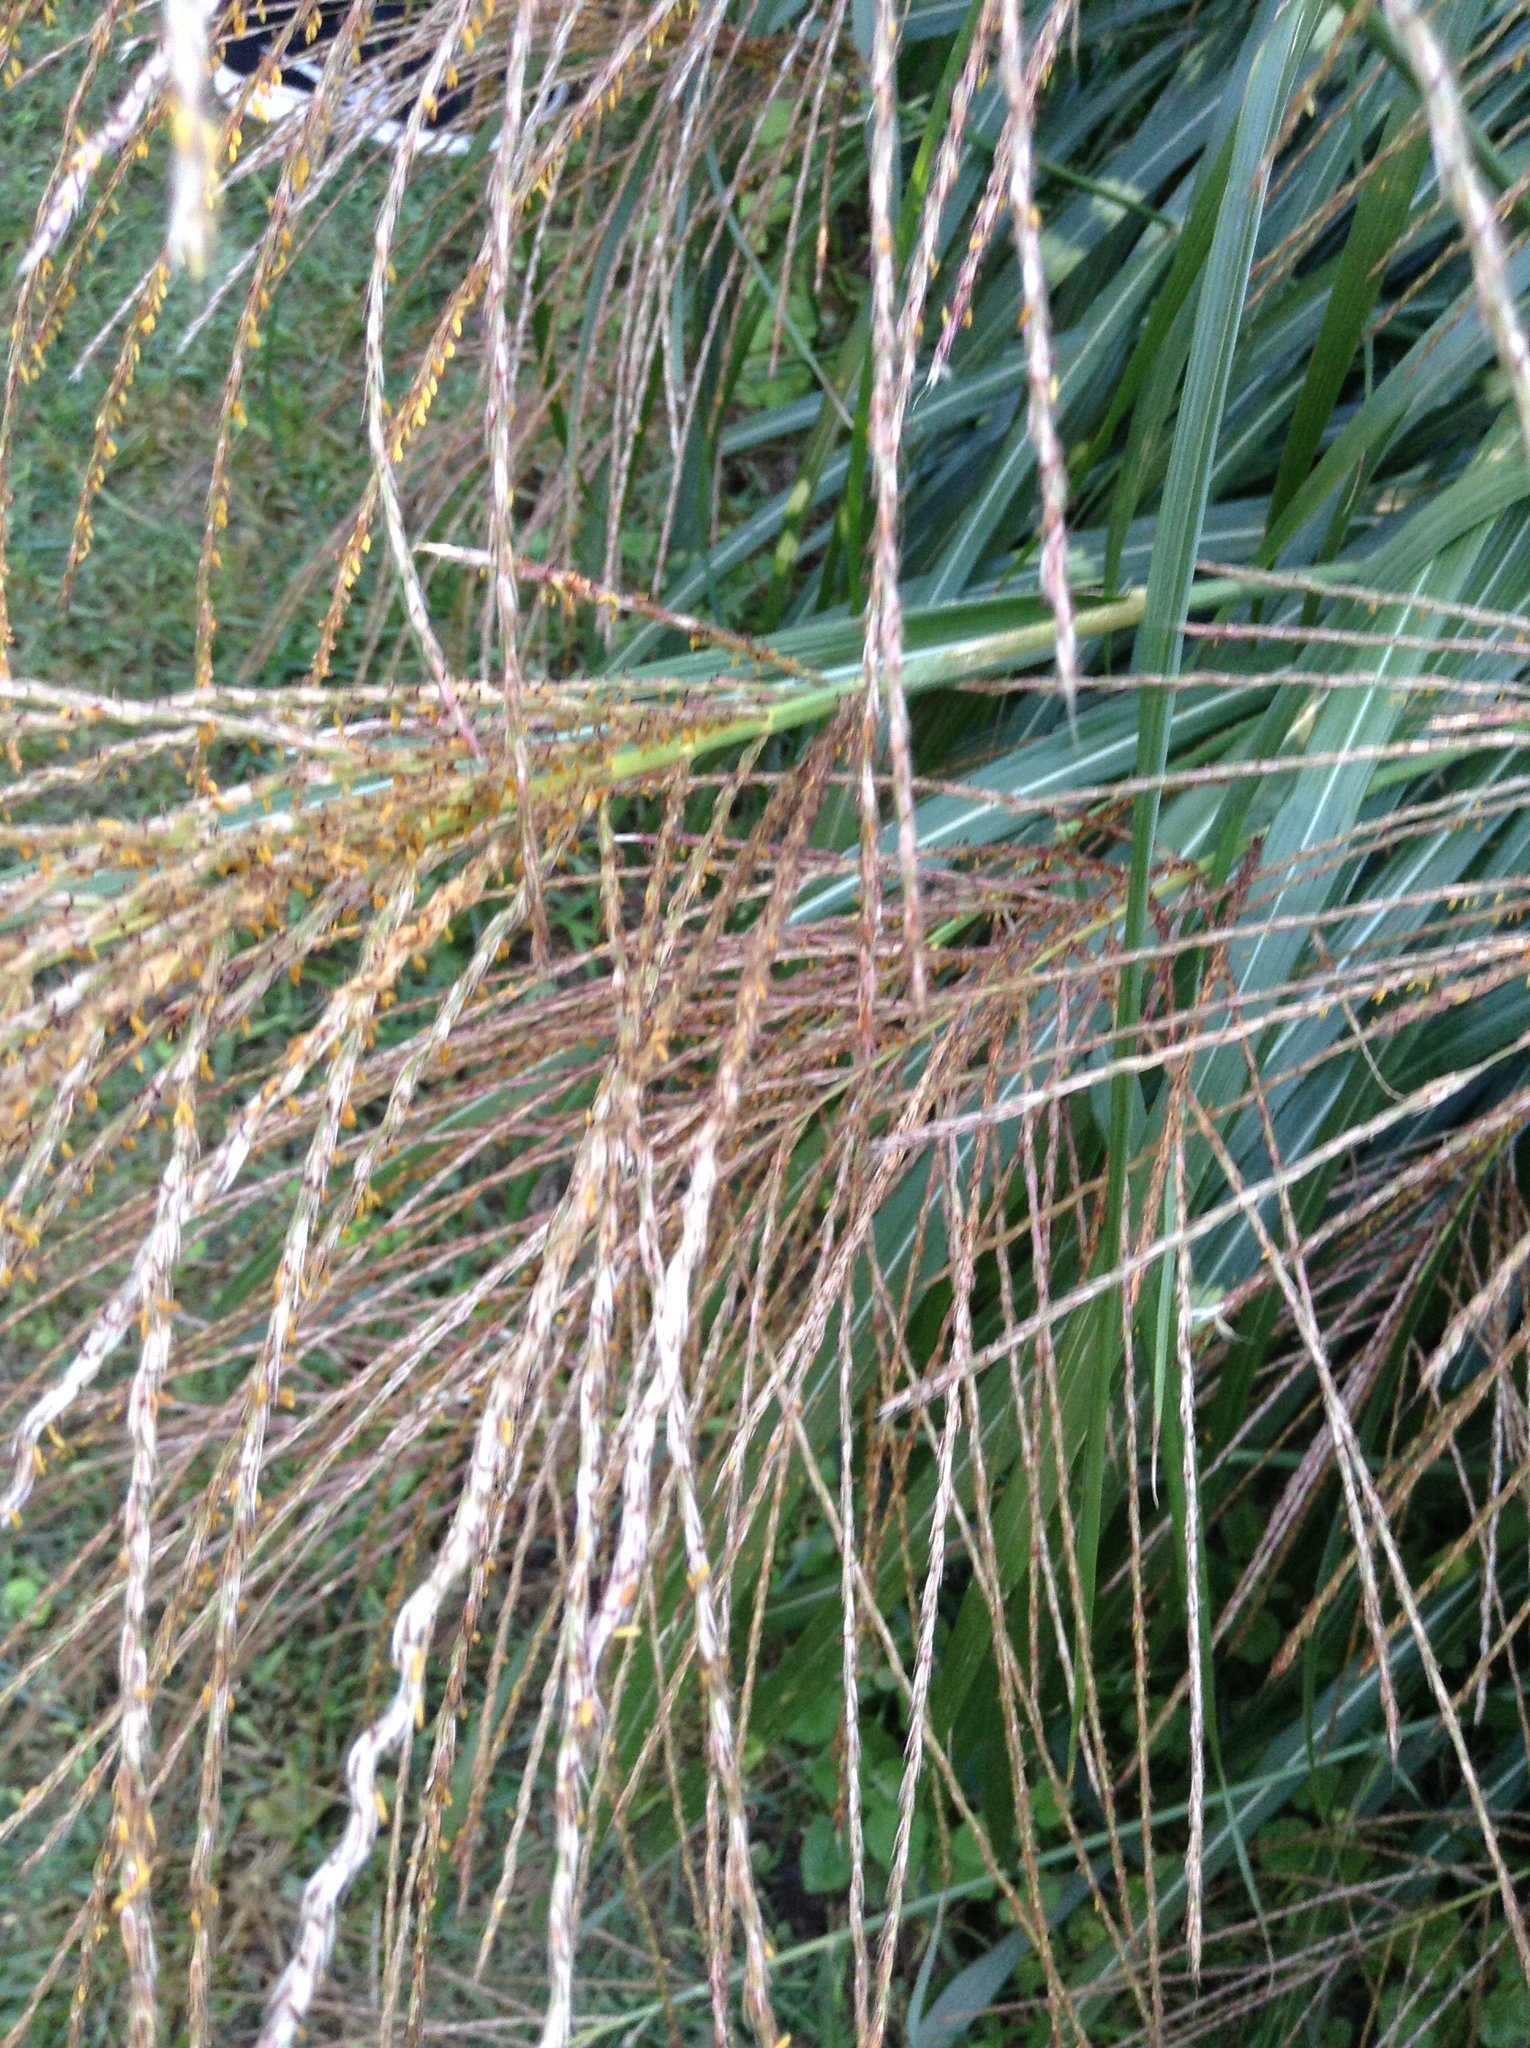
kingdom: Plantae
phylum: Tracheophyta
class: Liliopsida
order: Poales
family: Poaceae
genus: Miscanthus
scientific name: Miscanthus sinensis
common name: Chinese silvergrass
